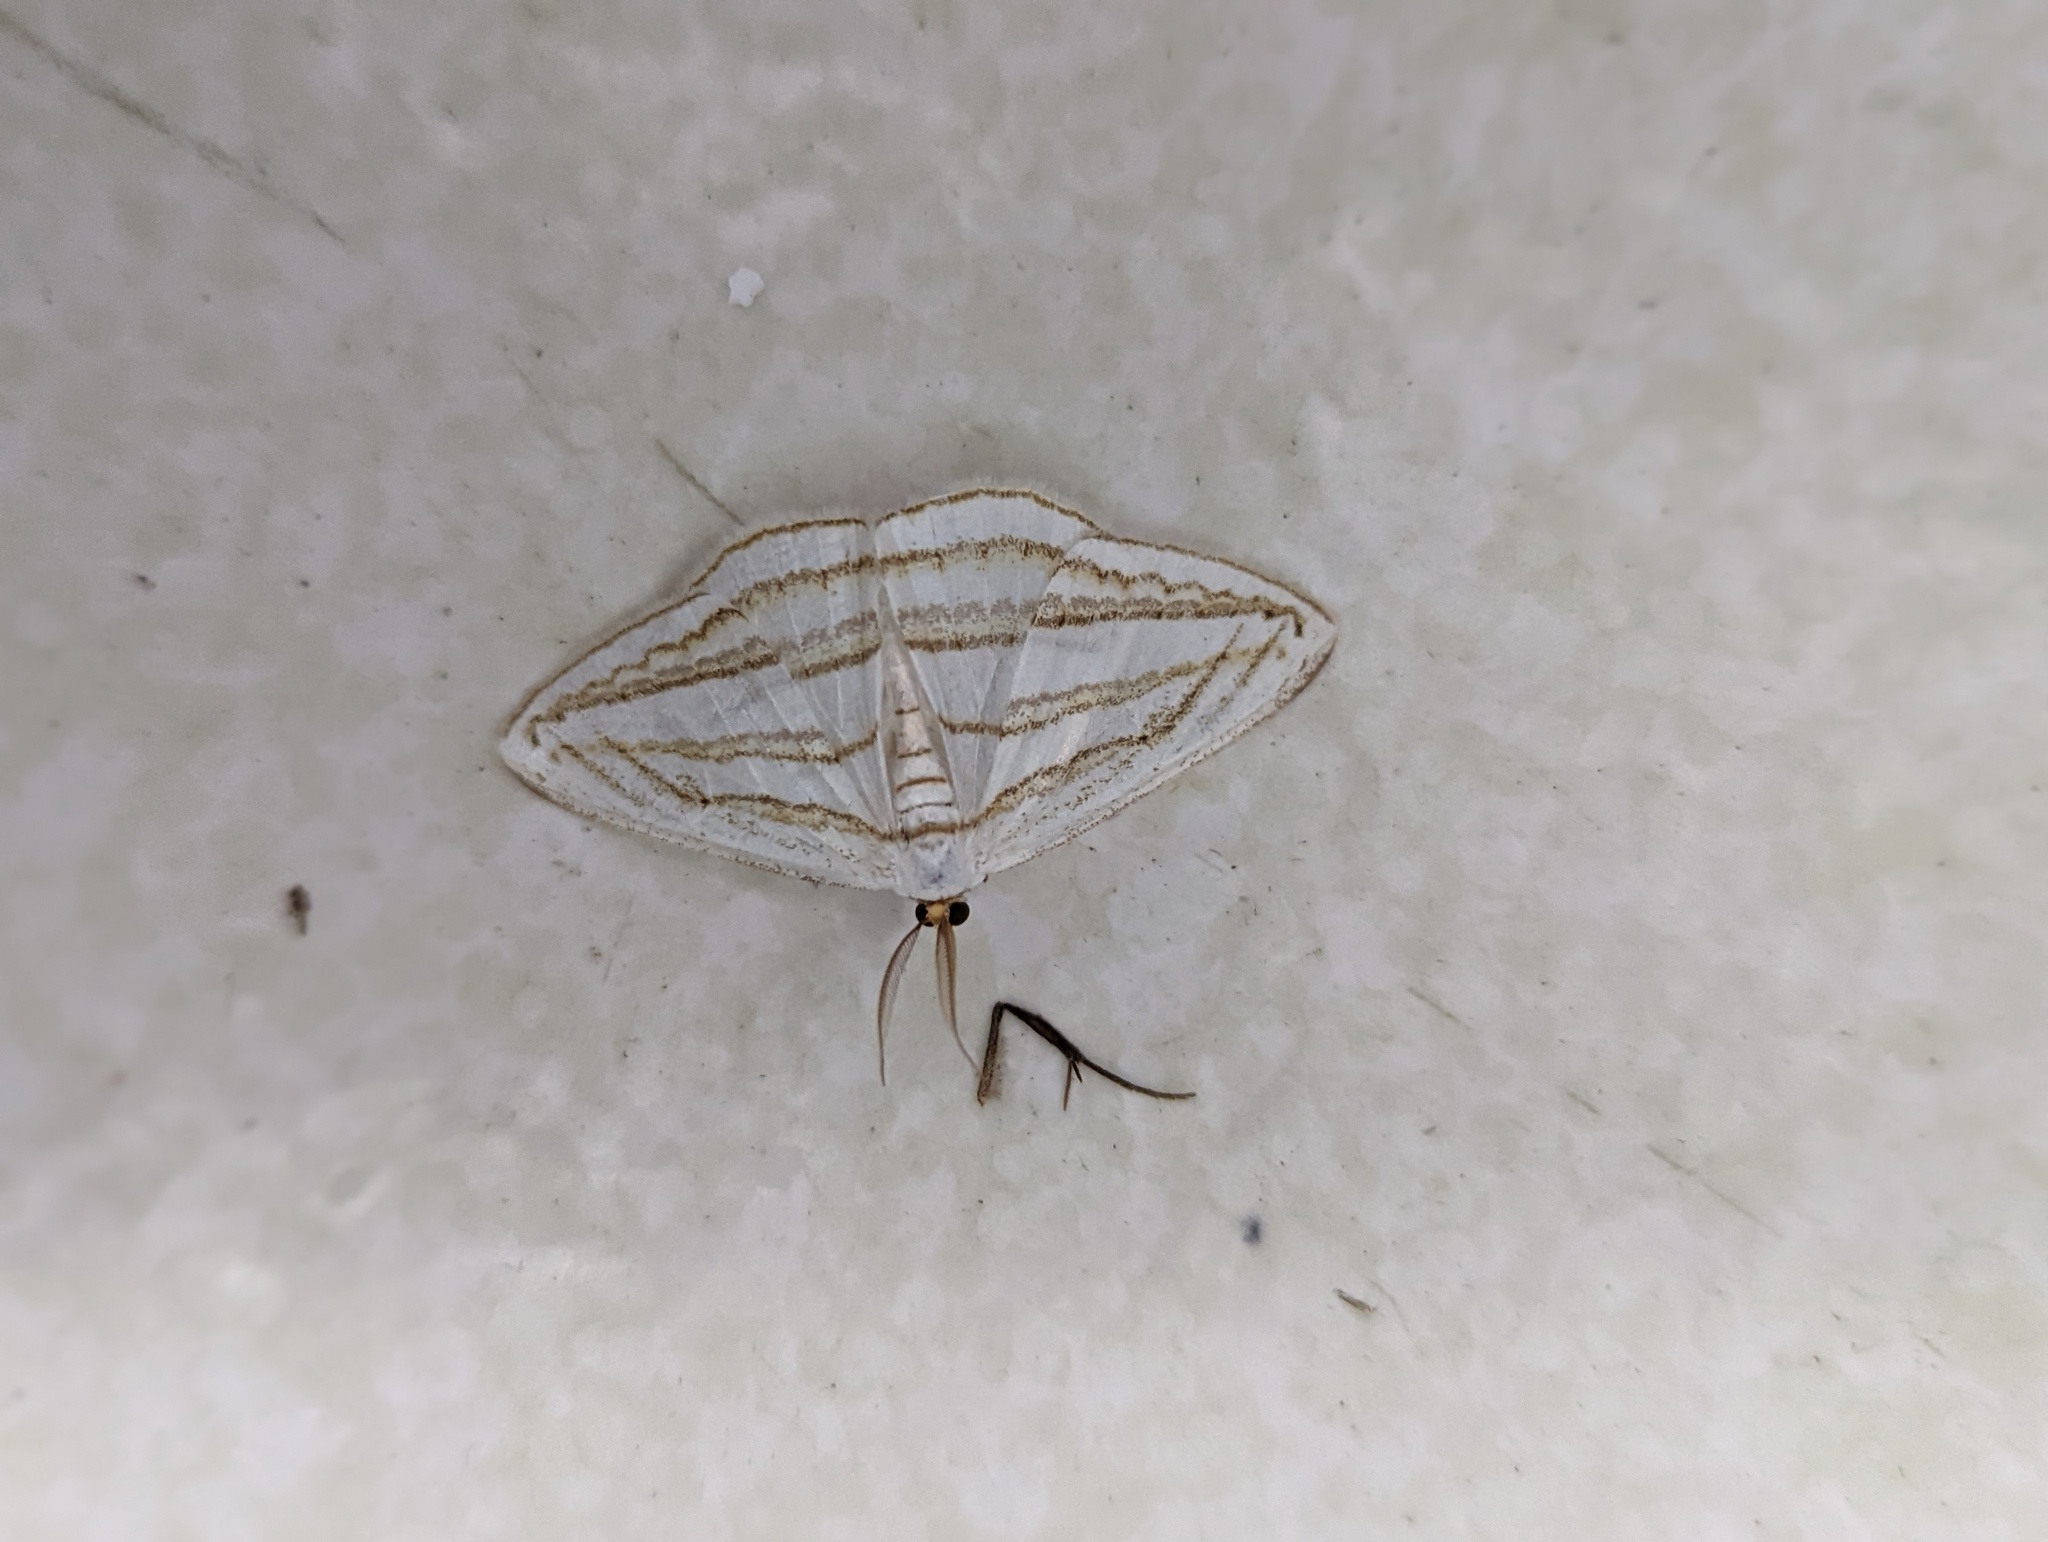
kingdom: Animalia
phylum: Arthropoda
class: Insecta
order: Lepidoptera
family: Geometridae
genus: Orthocabera
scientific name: Orthocabera sericea
